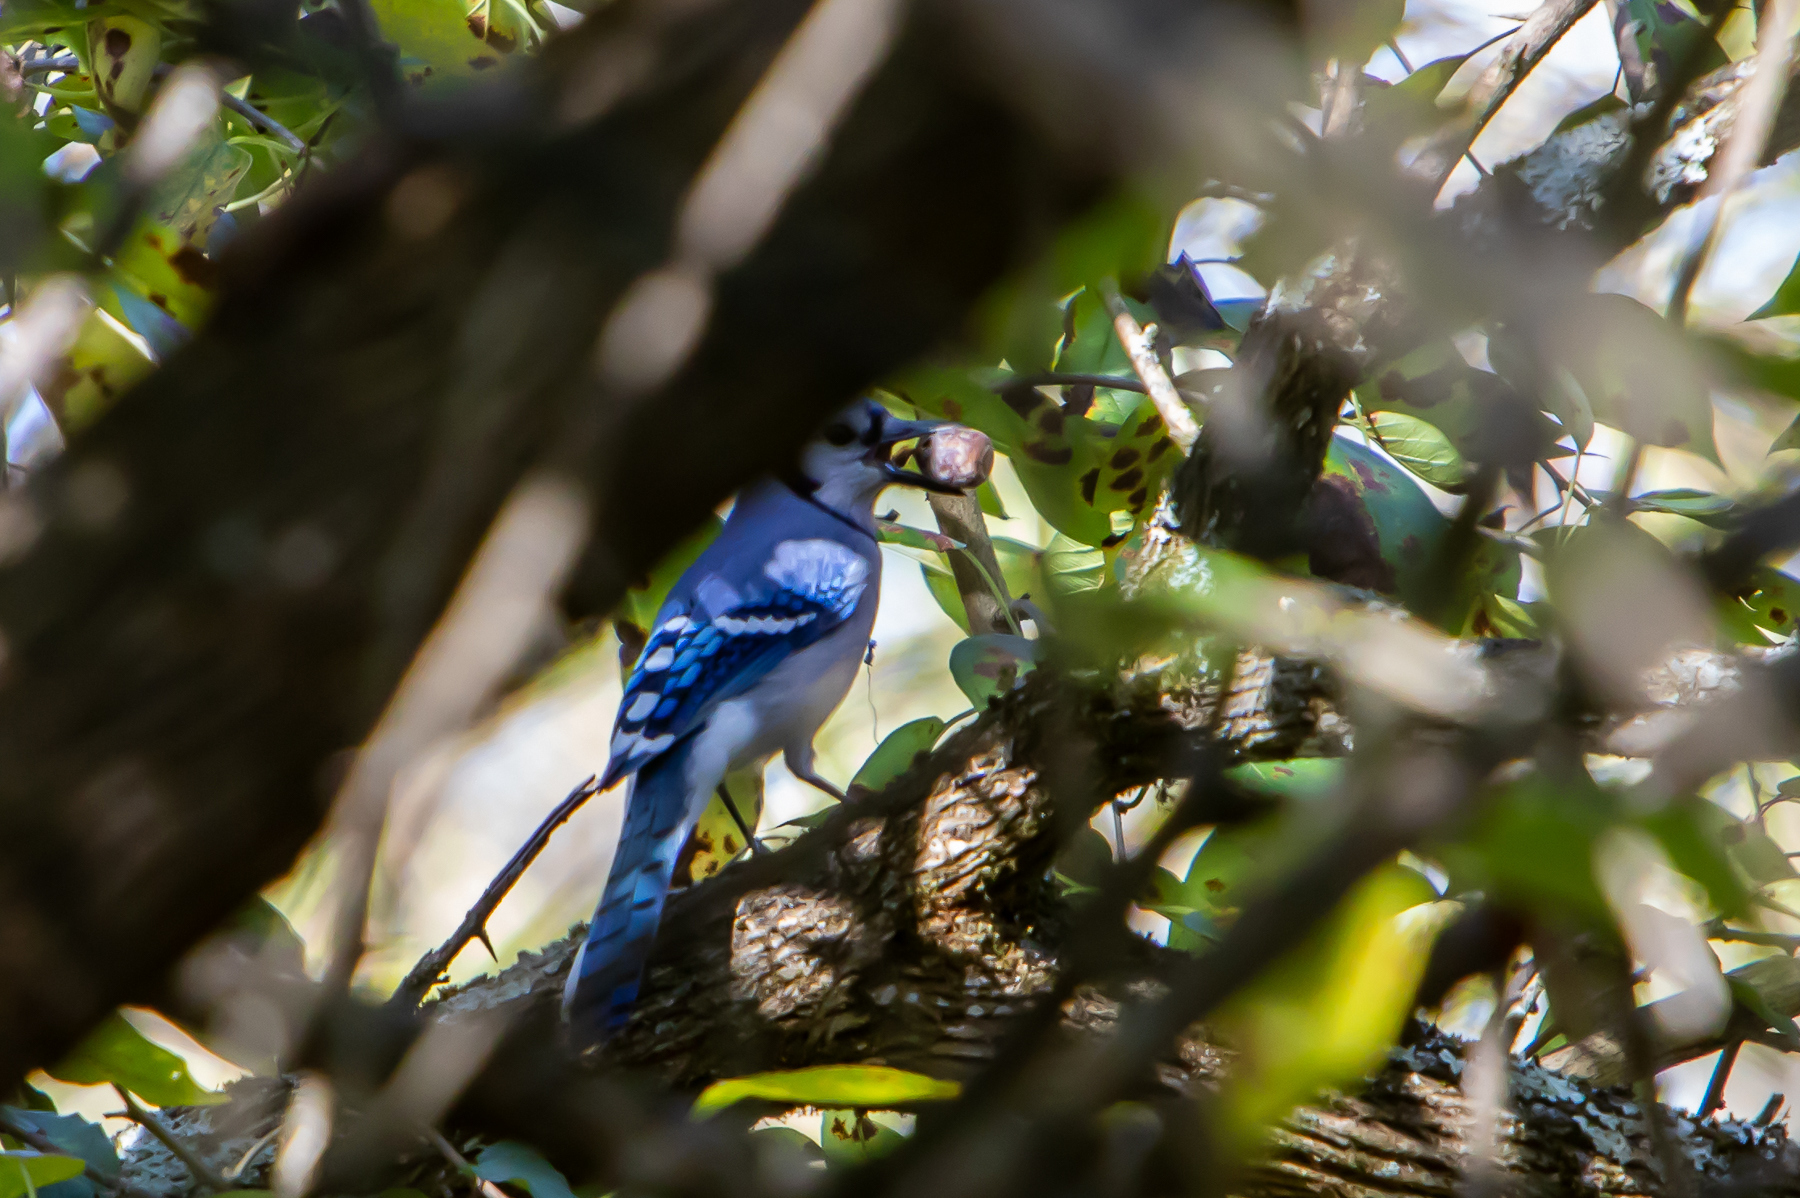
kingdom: Animalia
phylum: Chordata
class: Aves
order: Passeriformes
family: Corvidae
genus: Cyanocitta
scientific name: Cyanocitta cristata
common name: Blue jay
